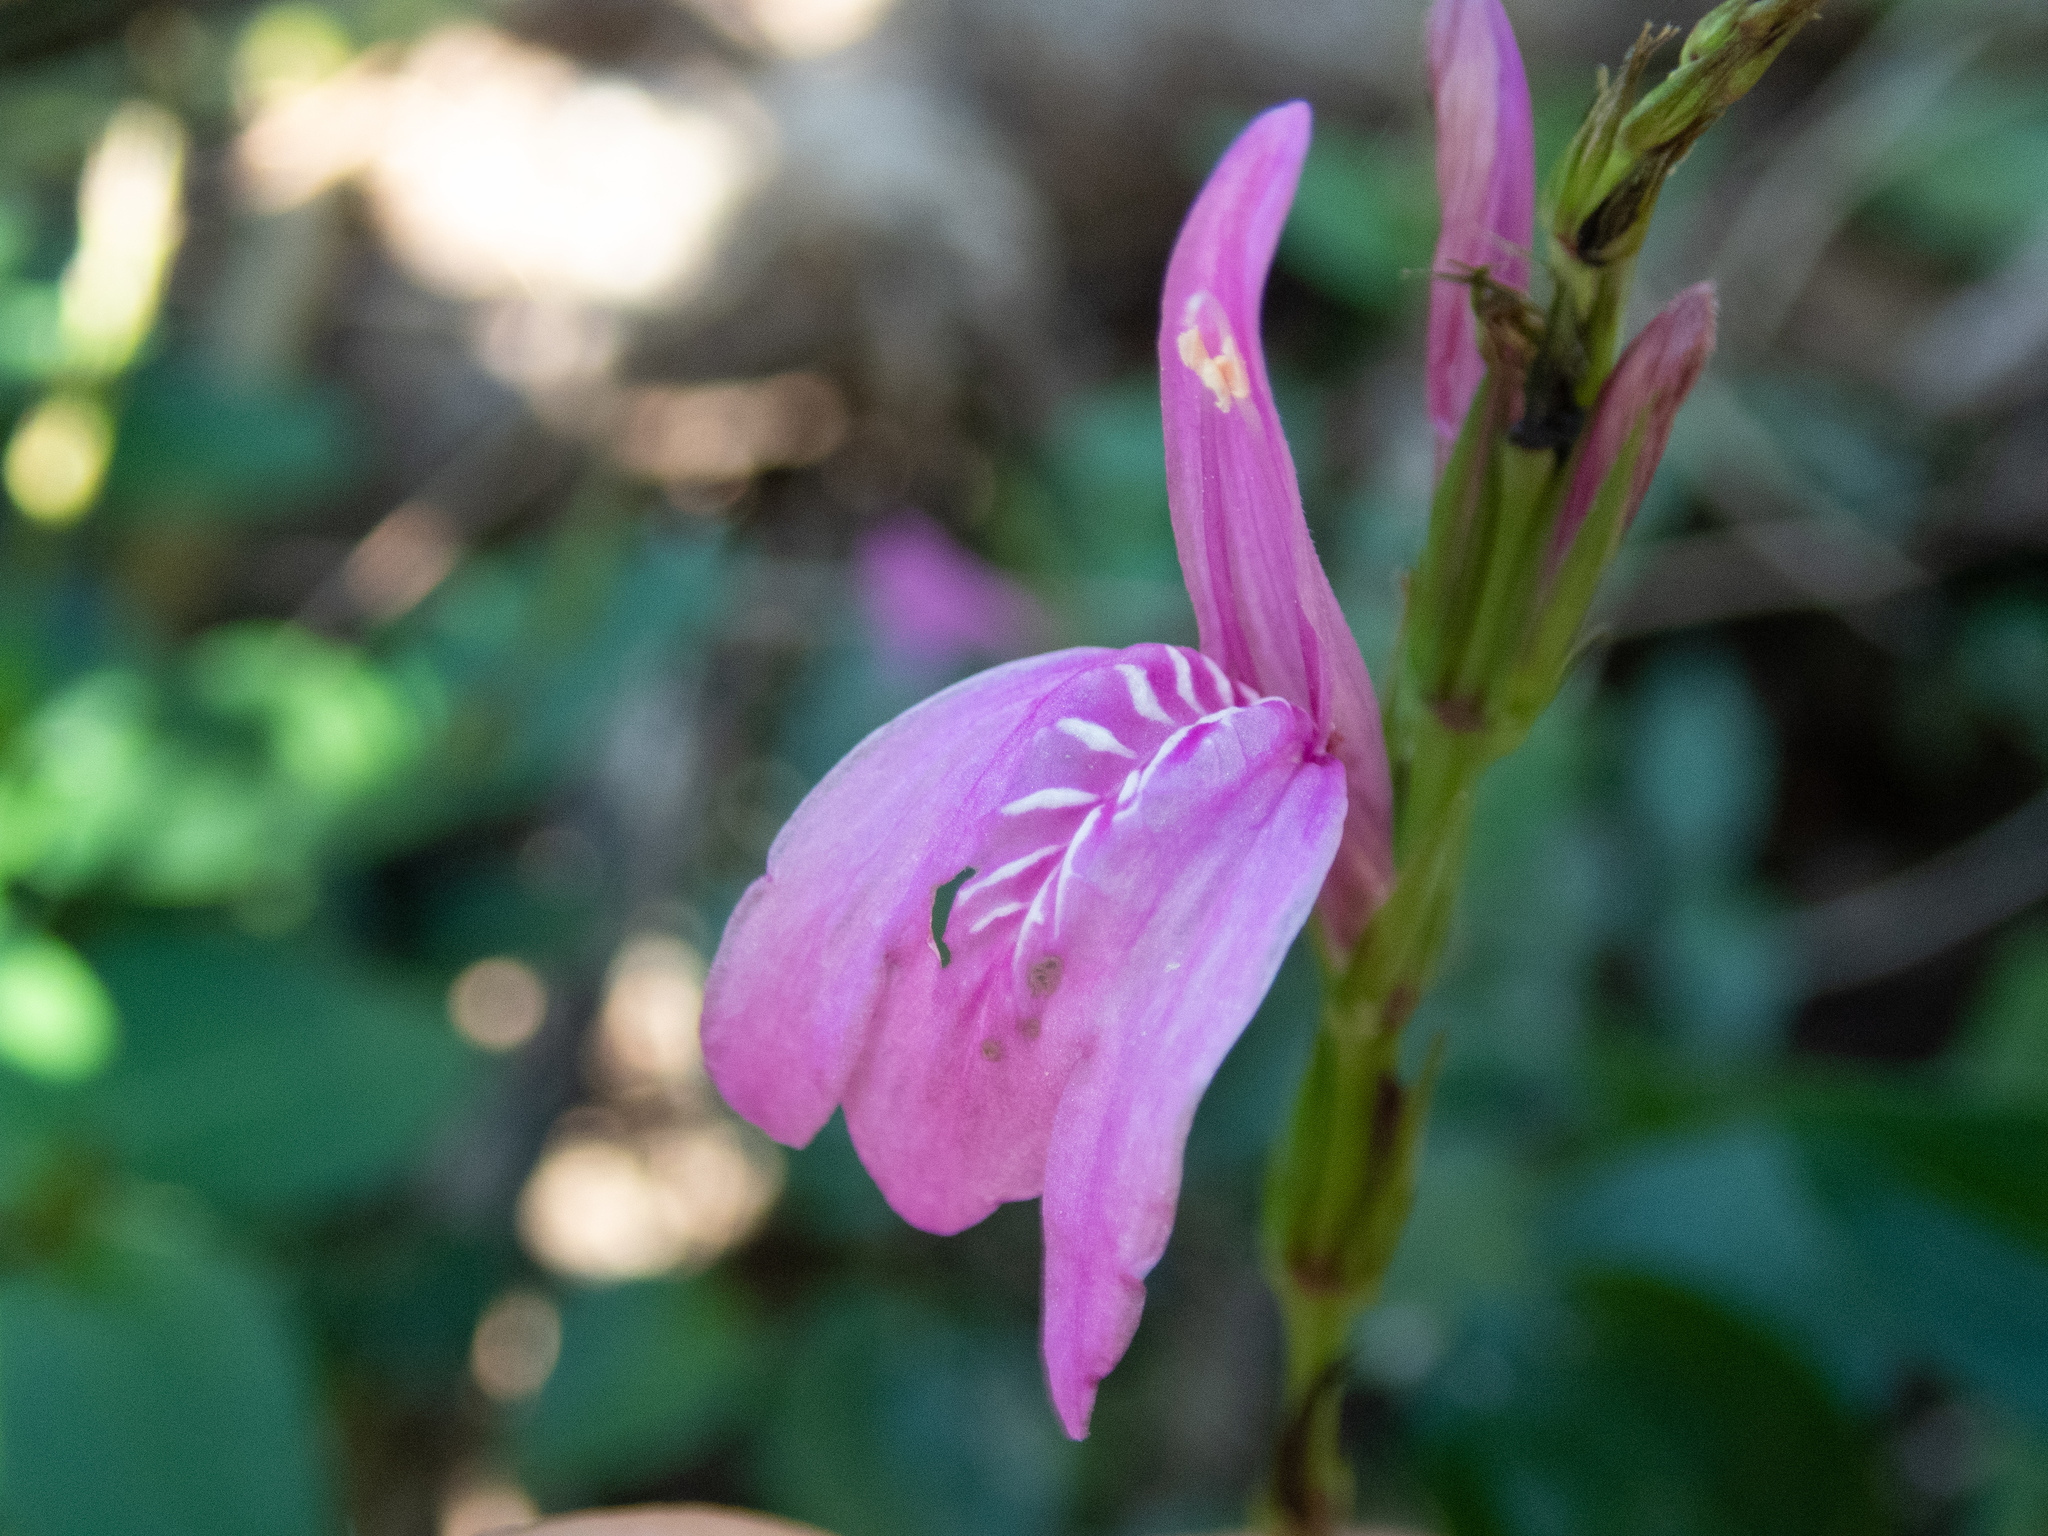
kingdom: Plantae
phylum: Tracheophyta
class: Magnoliopsida
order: Lamiales
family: Acanthaceae
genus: Justicia
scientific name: Justicia carthaginensis
